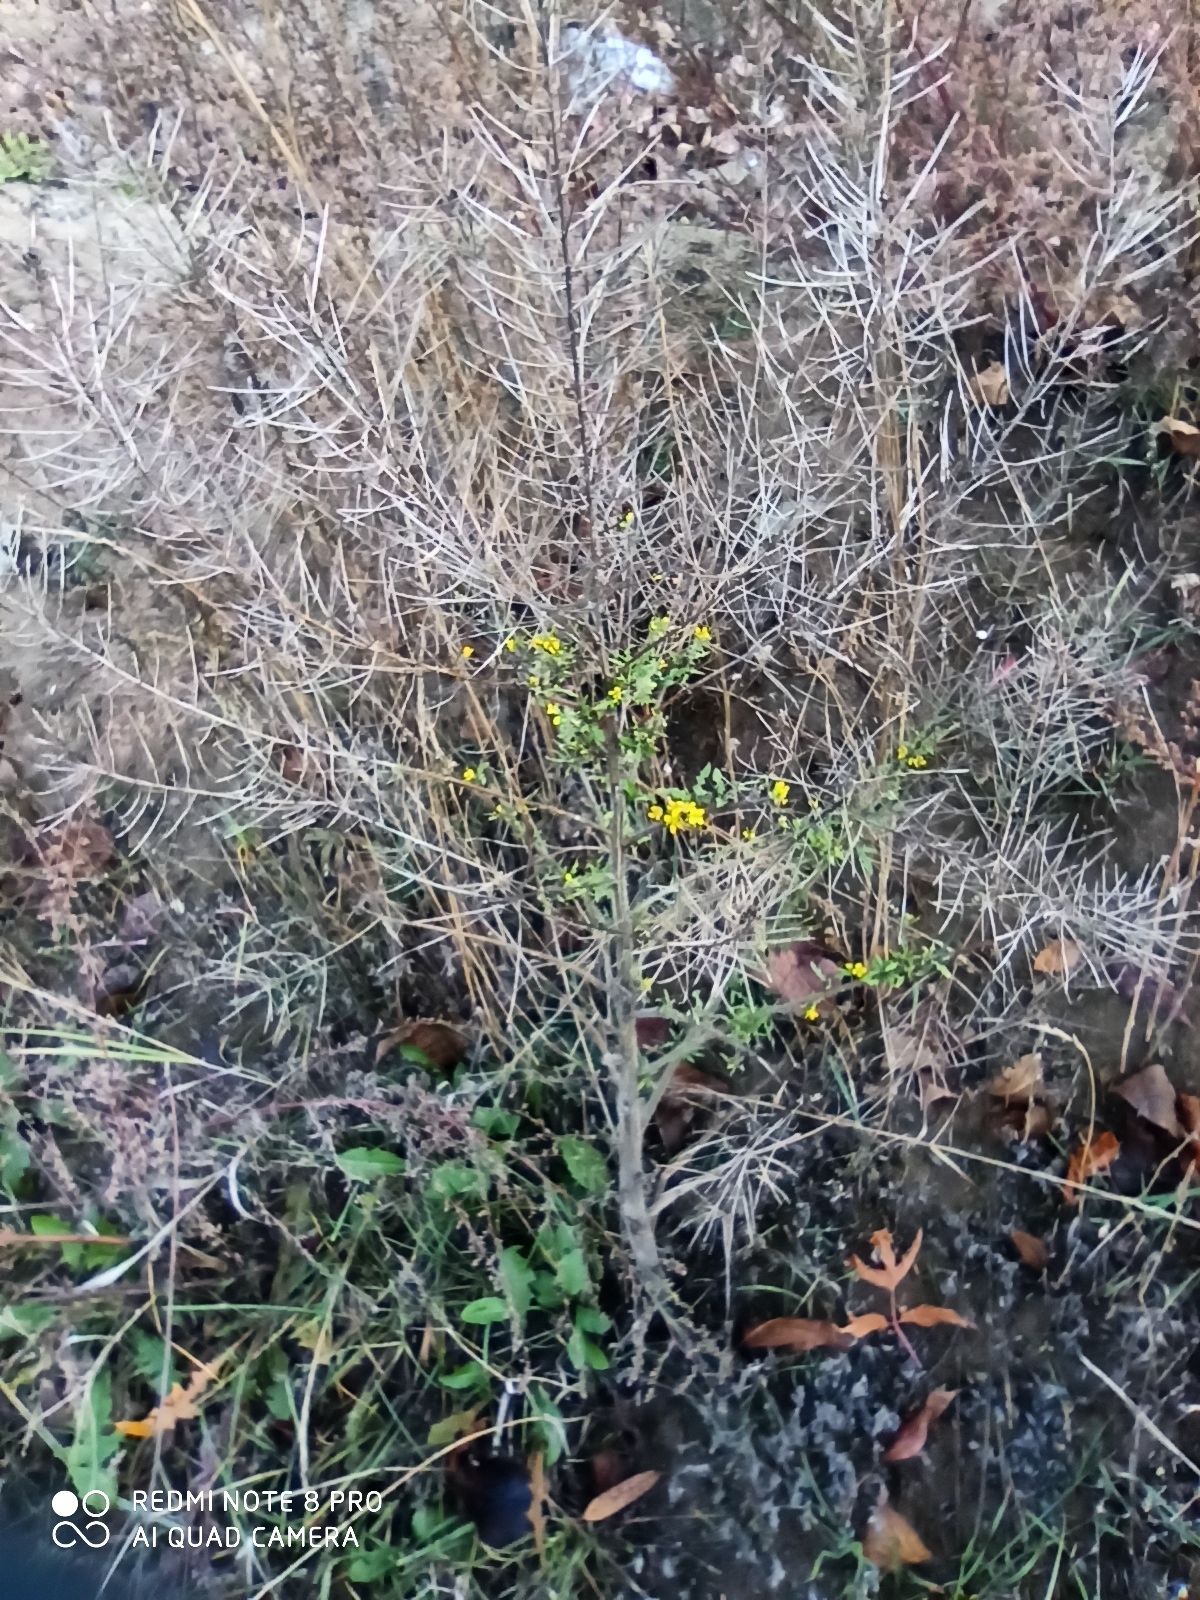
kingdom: Plantae
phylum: Tracheophyta
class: Magnoliopsida
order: Brassicales
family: Brassicaceae
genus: Sisymbrium
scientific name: Sisymbrium loeselii
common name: False london-rocket
